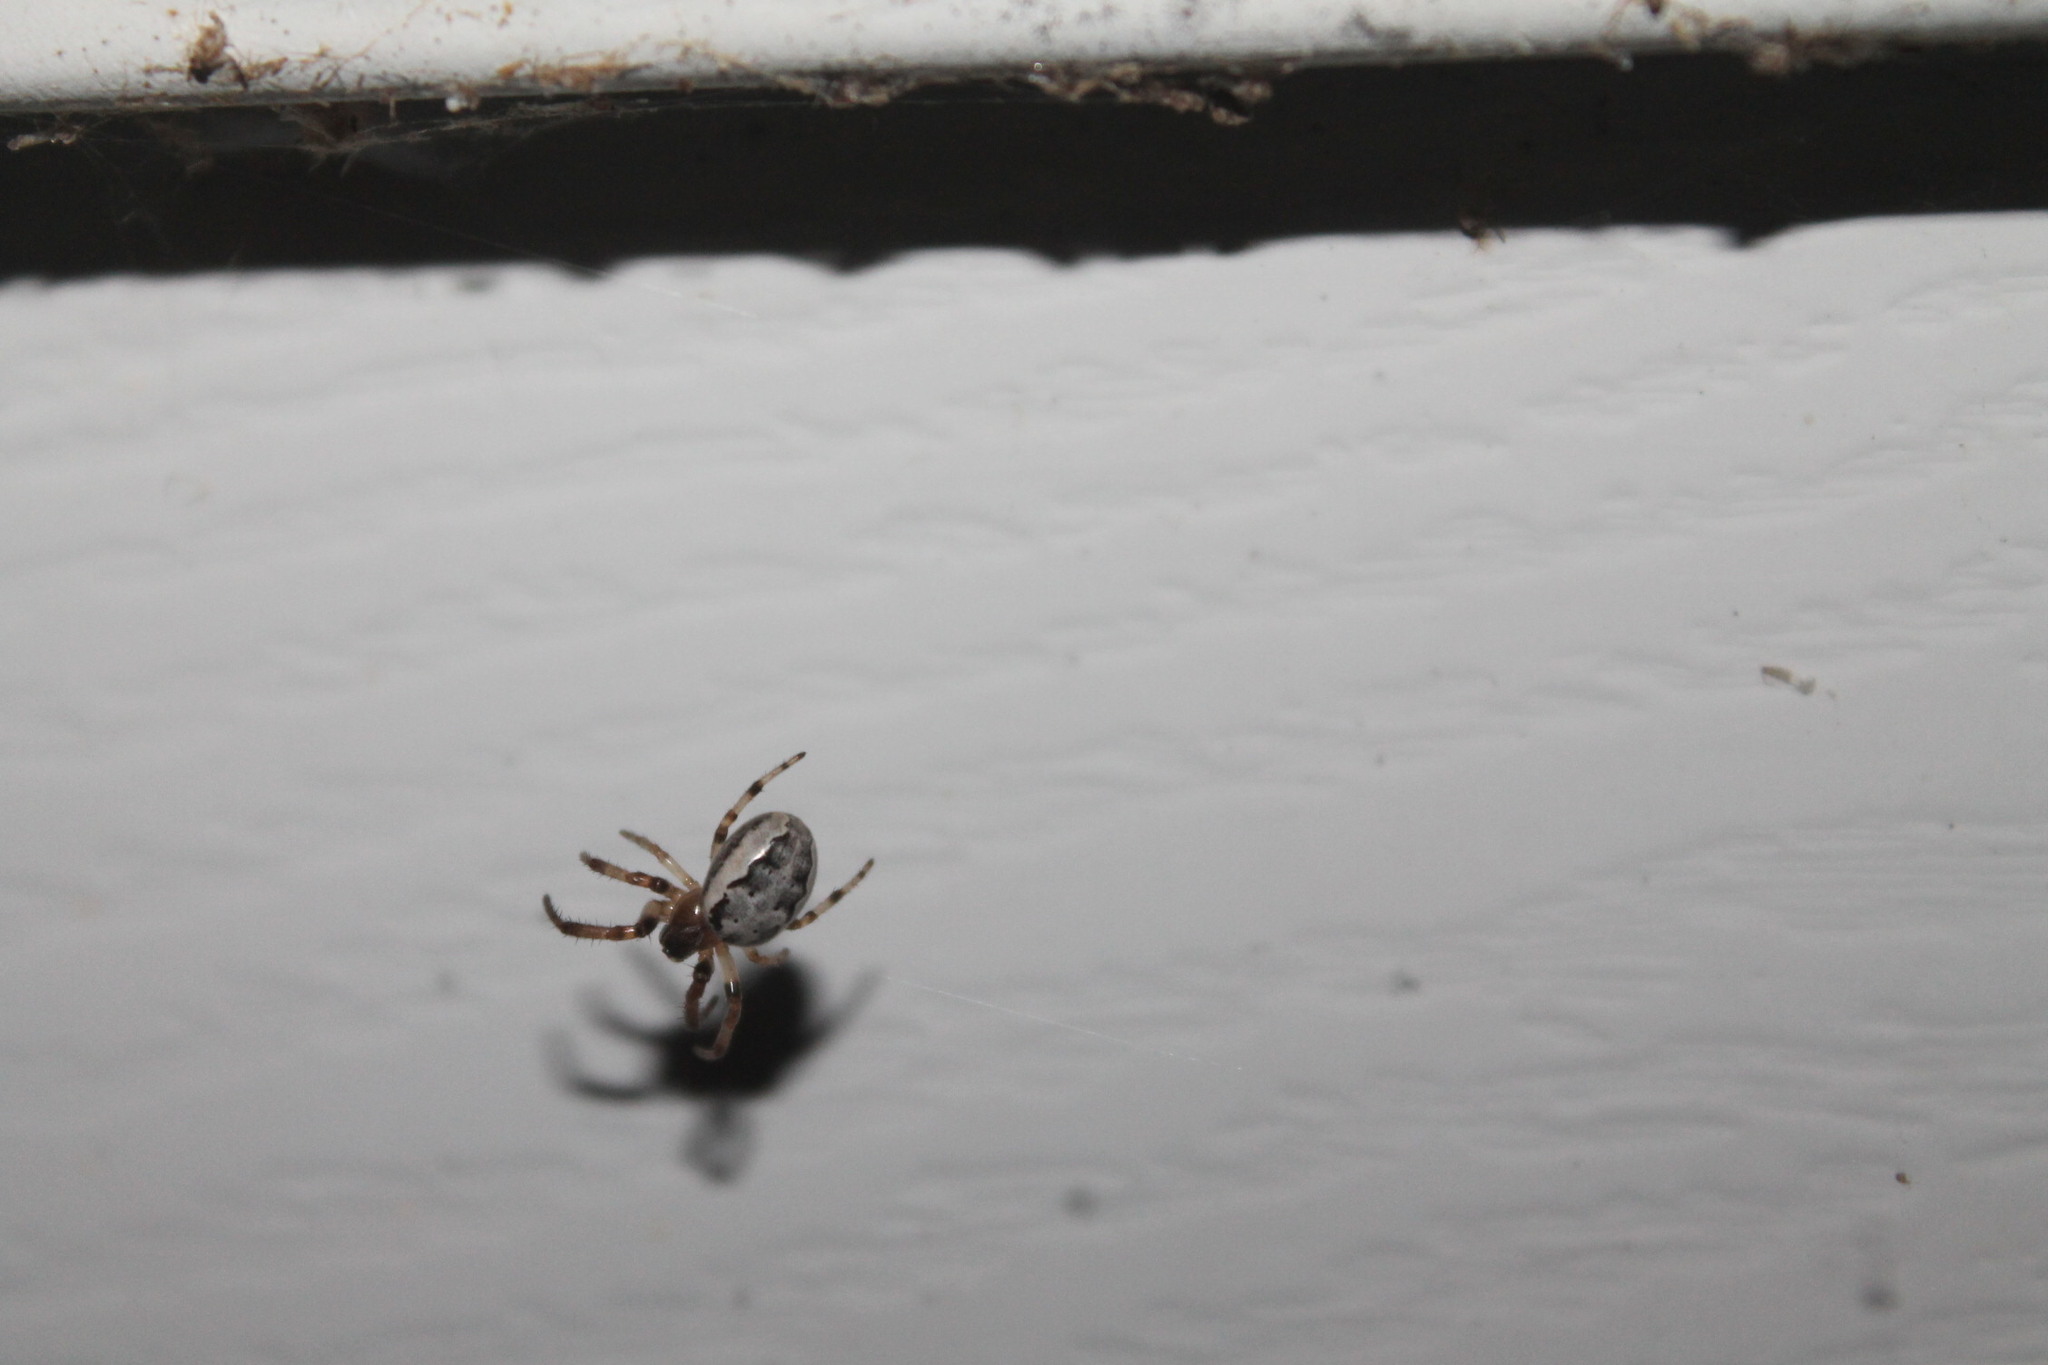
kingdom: Animalia
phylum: Arthropoda
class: Arachnida
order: Araneae
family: Araneidae
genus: Larinioides
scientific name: Larinioides cornutus
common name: Furrow orbweaver
